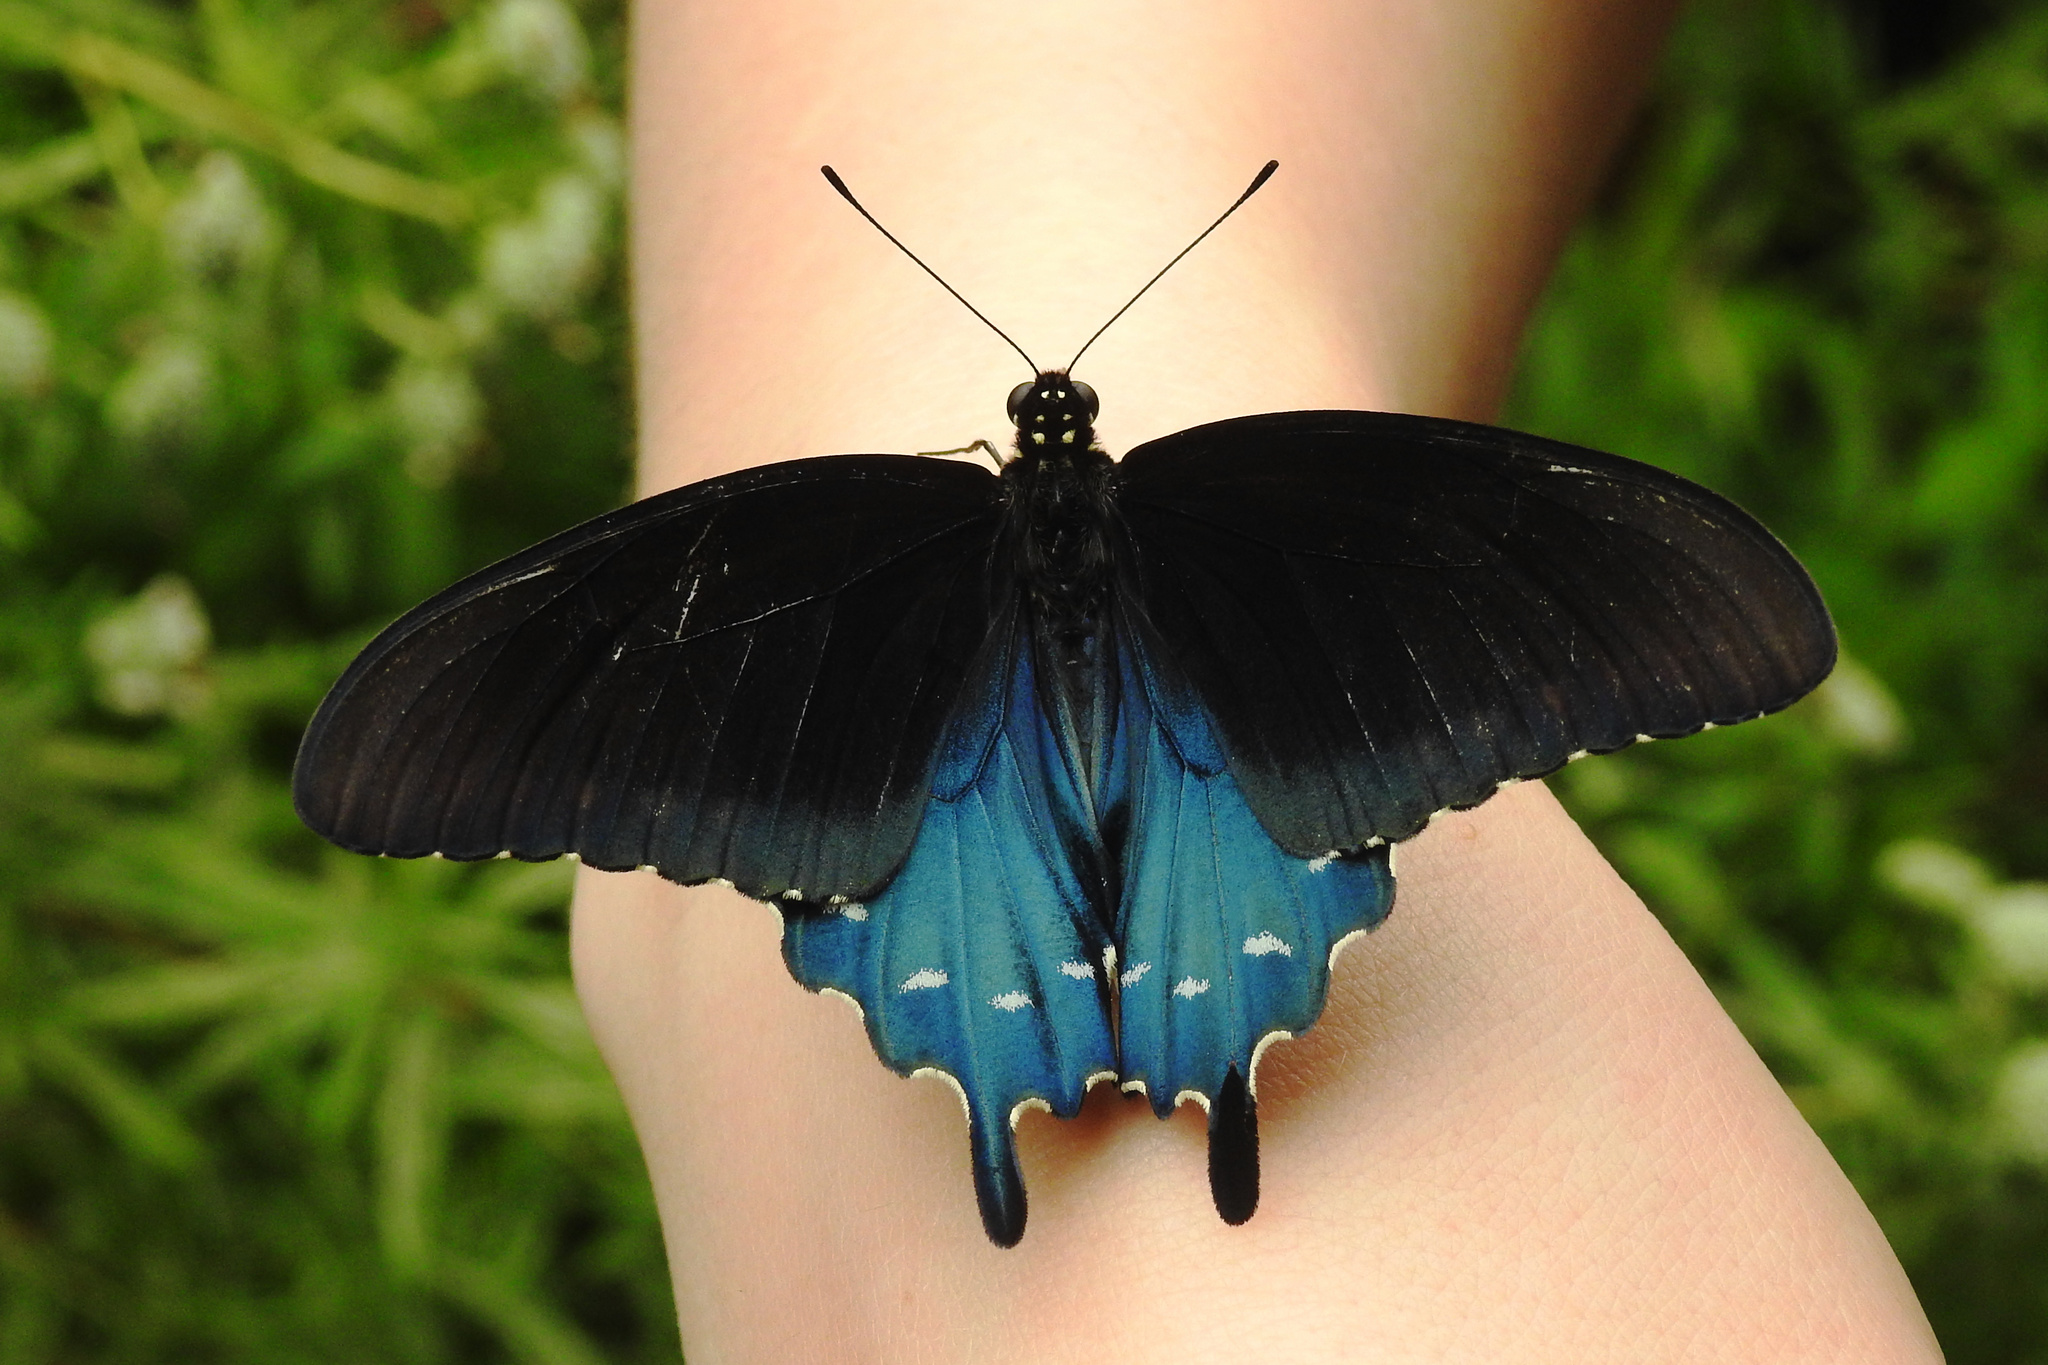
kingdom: Animalia
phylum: Arthropoda
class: Insecta
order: Lepidoptera
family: Papilionidae
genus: Battus
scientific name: Battus philenor
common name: Pipevine swallowtail
